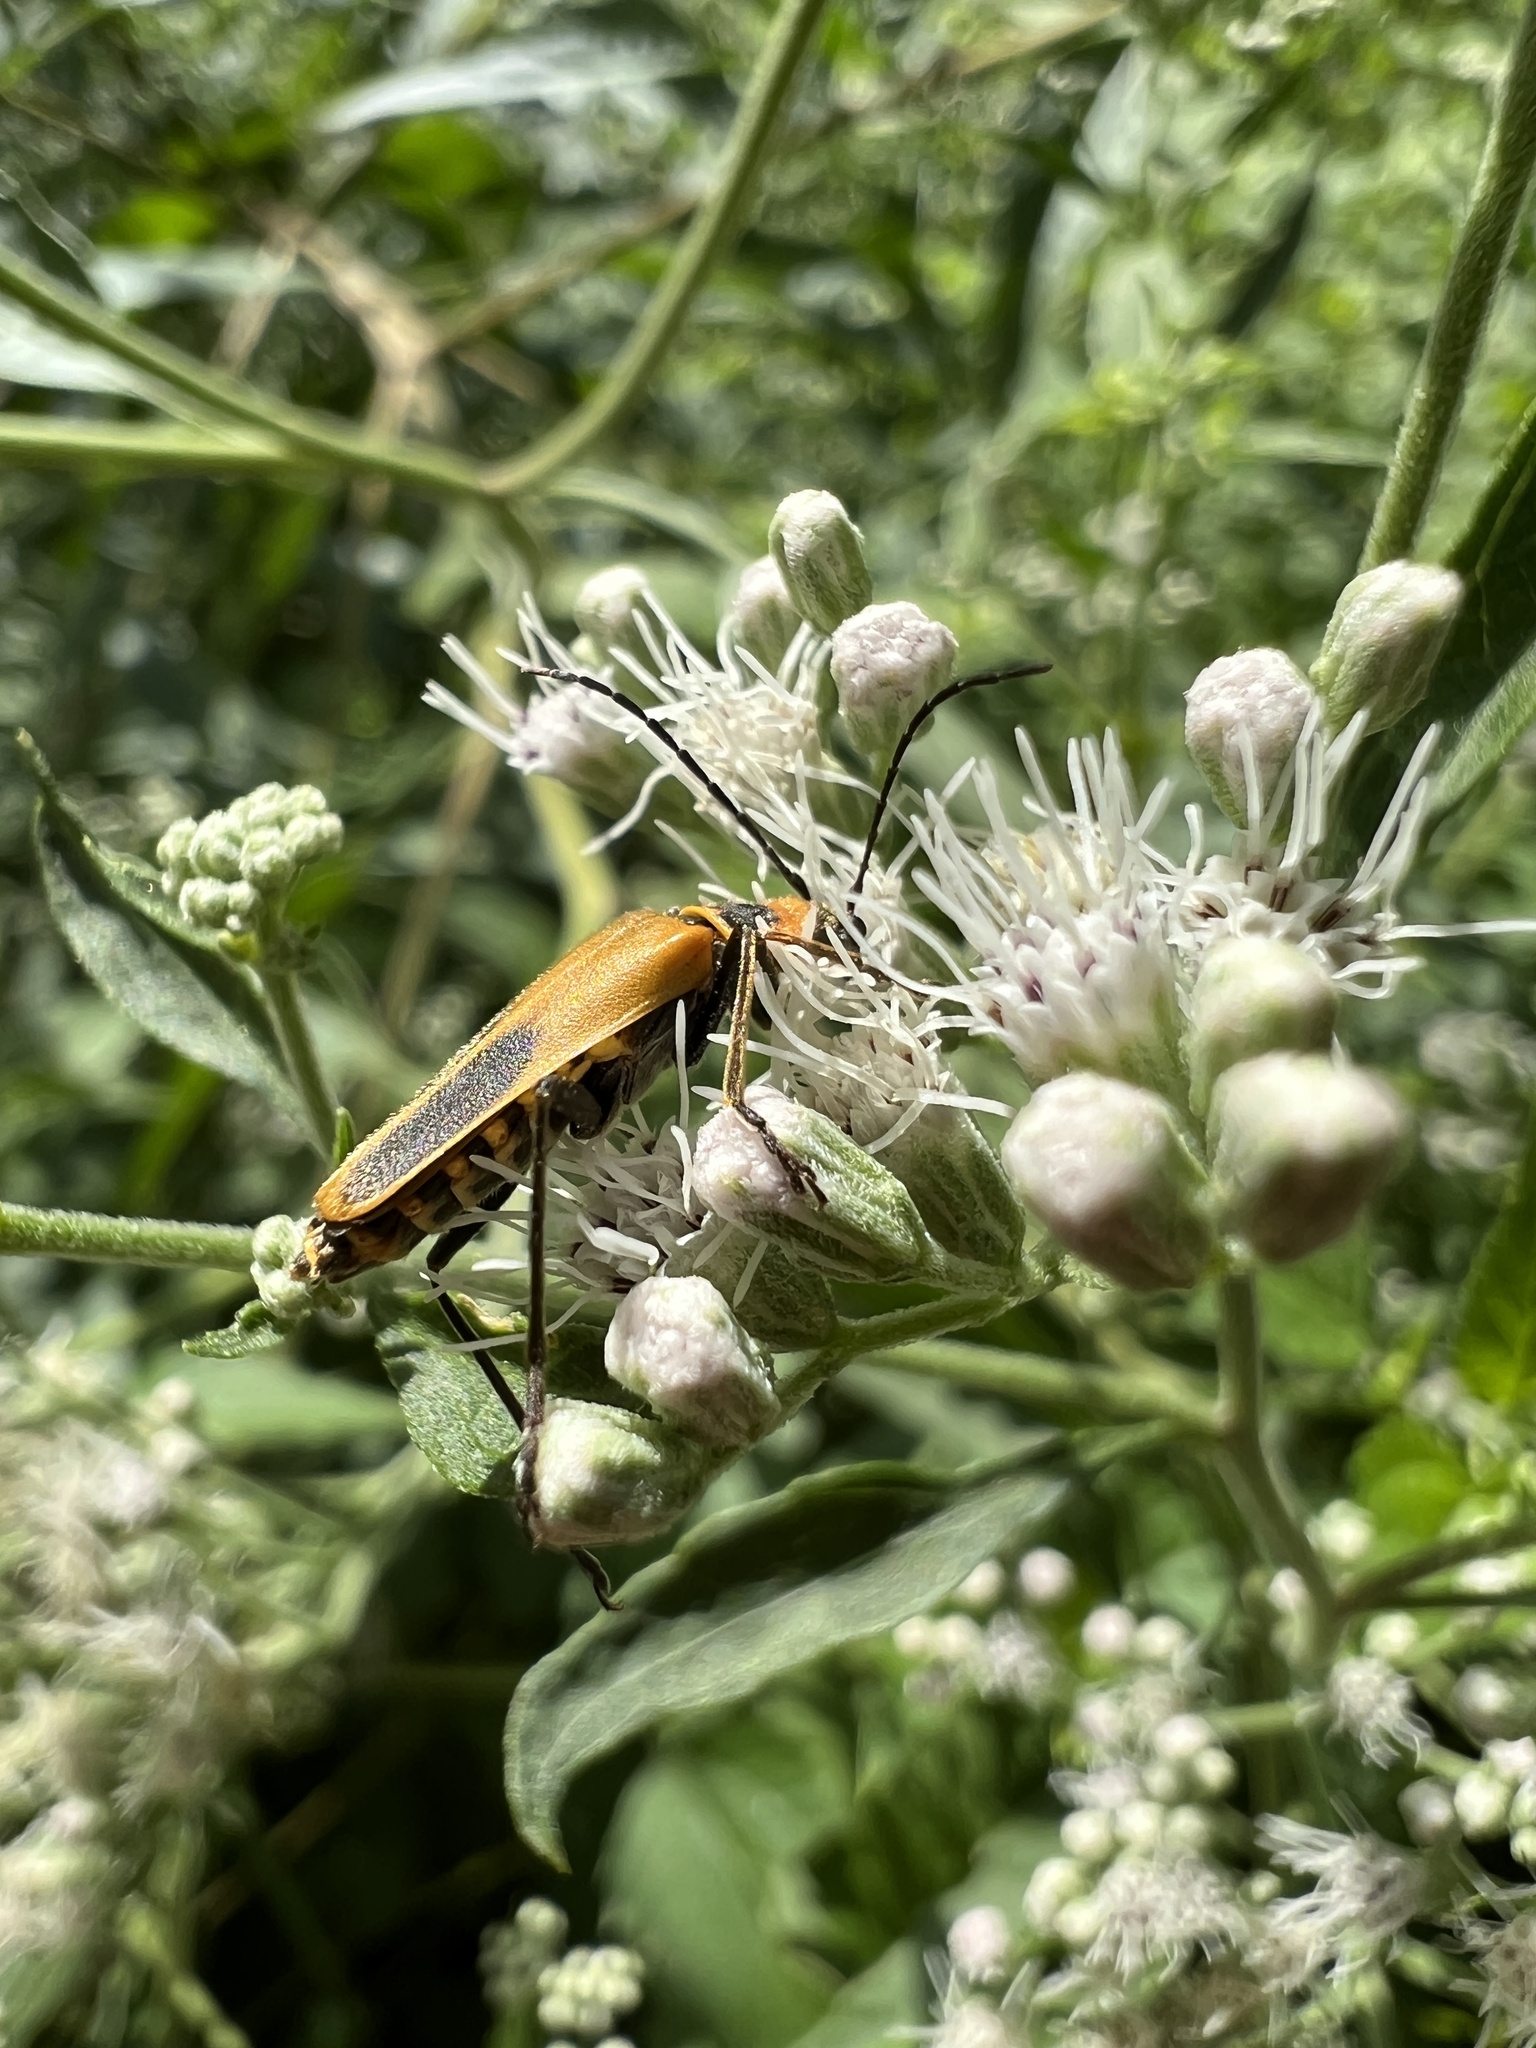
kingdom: Animalia
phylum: Arthropoda
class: Insecta
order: Coleoptera
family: Cantharidae
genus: Chauliognathus
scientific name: Chauliognathus pensylvanicus
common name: Goldenrod soldier beetle
